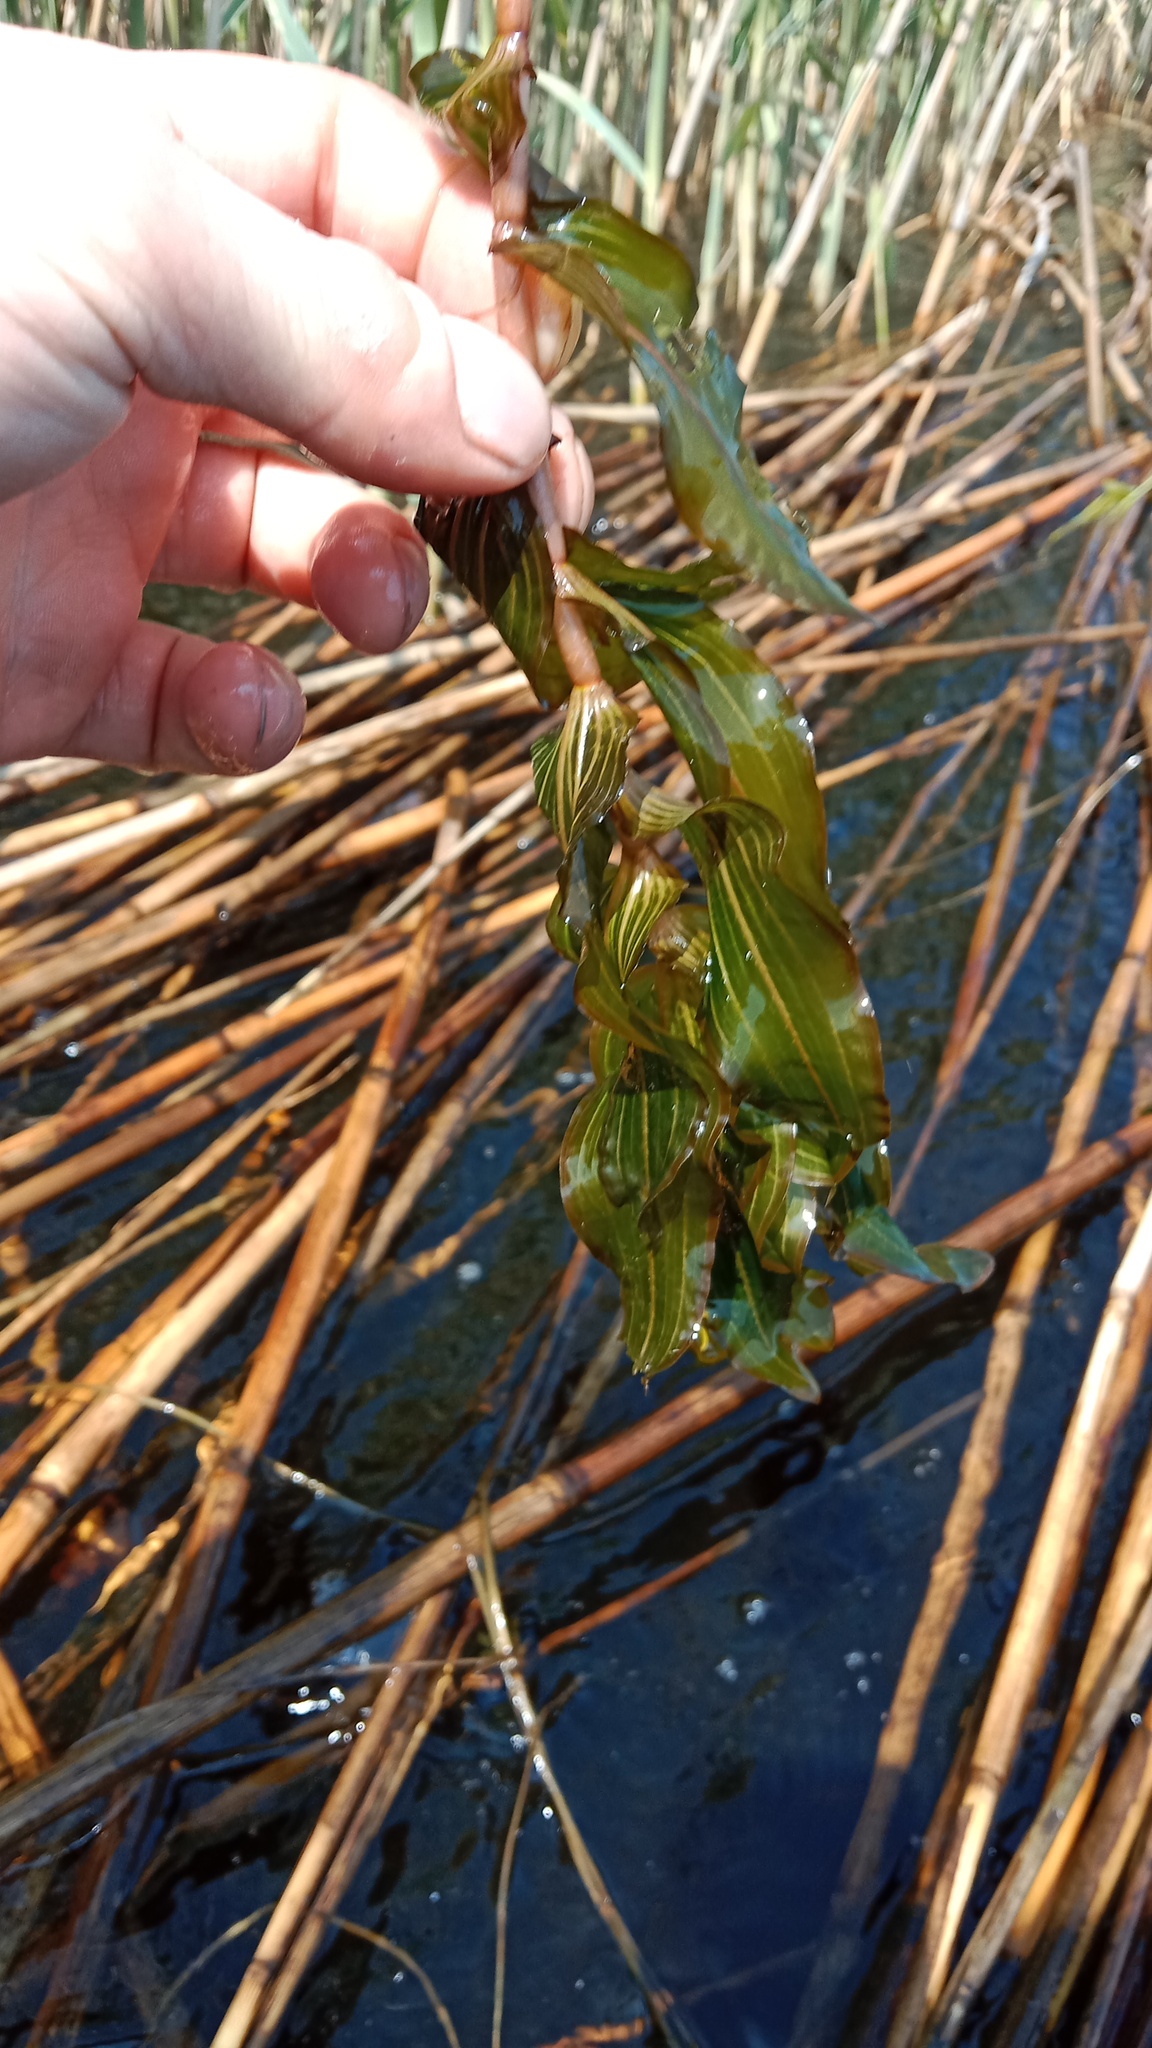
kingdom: Plantae
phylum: Tracheophyta
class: Liliopsida
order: Alismatales
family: Potamogetonaceae
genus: Potamogeton
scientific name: Potamogeton perfoliatus
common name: Perfoliate pondweed
